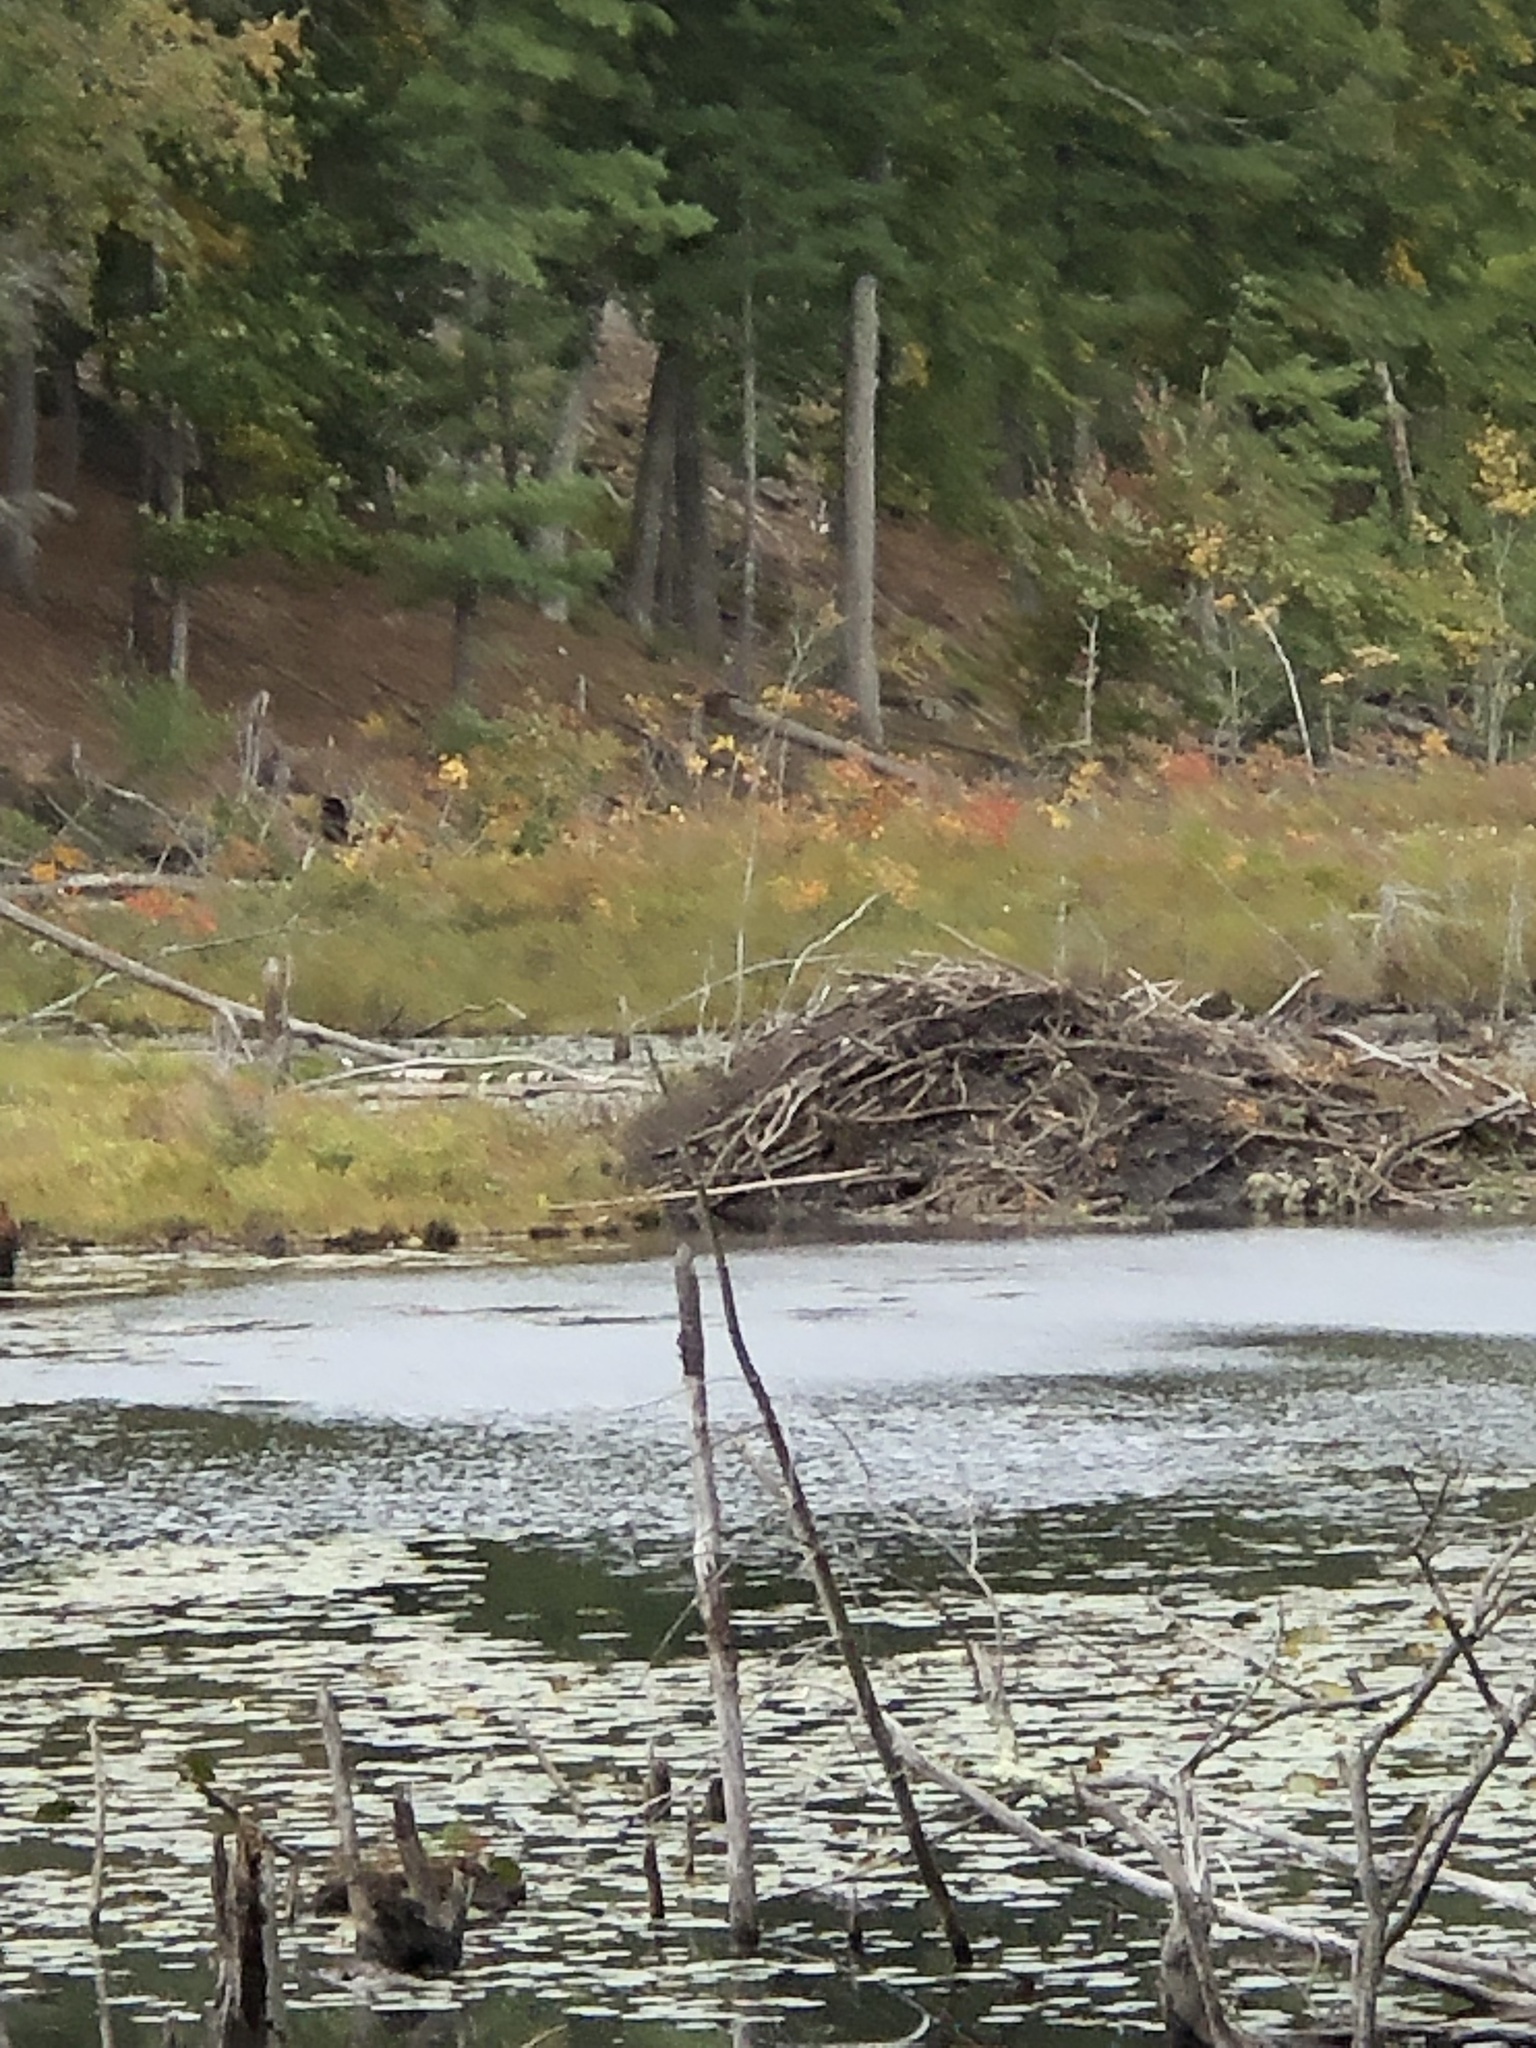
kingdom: Animalia
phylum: Chordata
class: Mammalia
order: Rodentia
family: Castoridae
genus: Castor
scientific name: Castor canadensis
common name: American beaver
